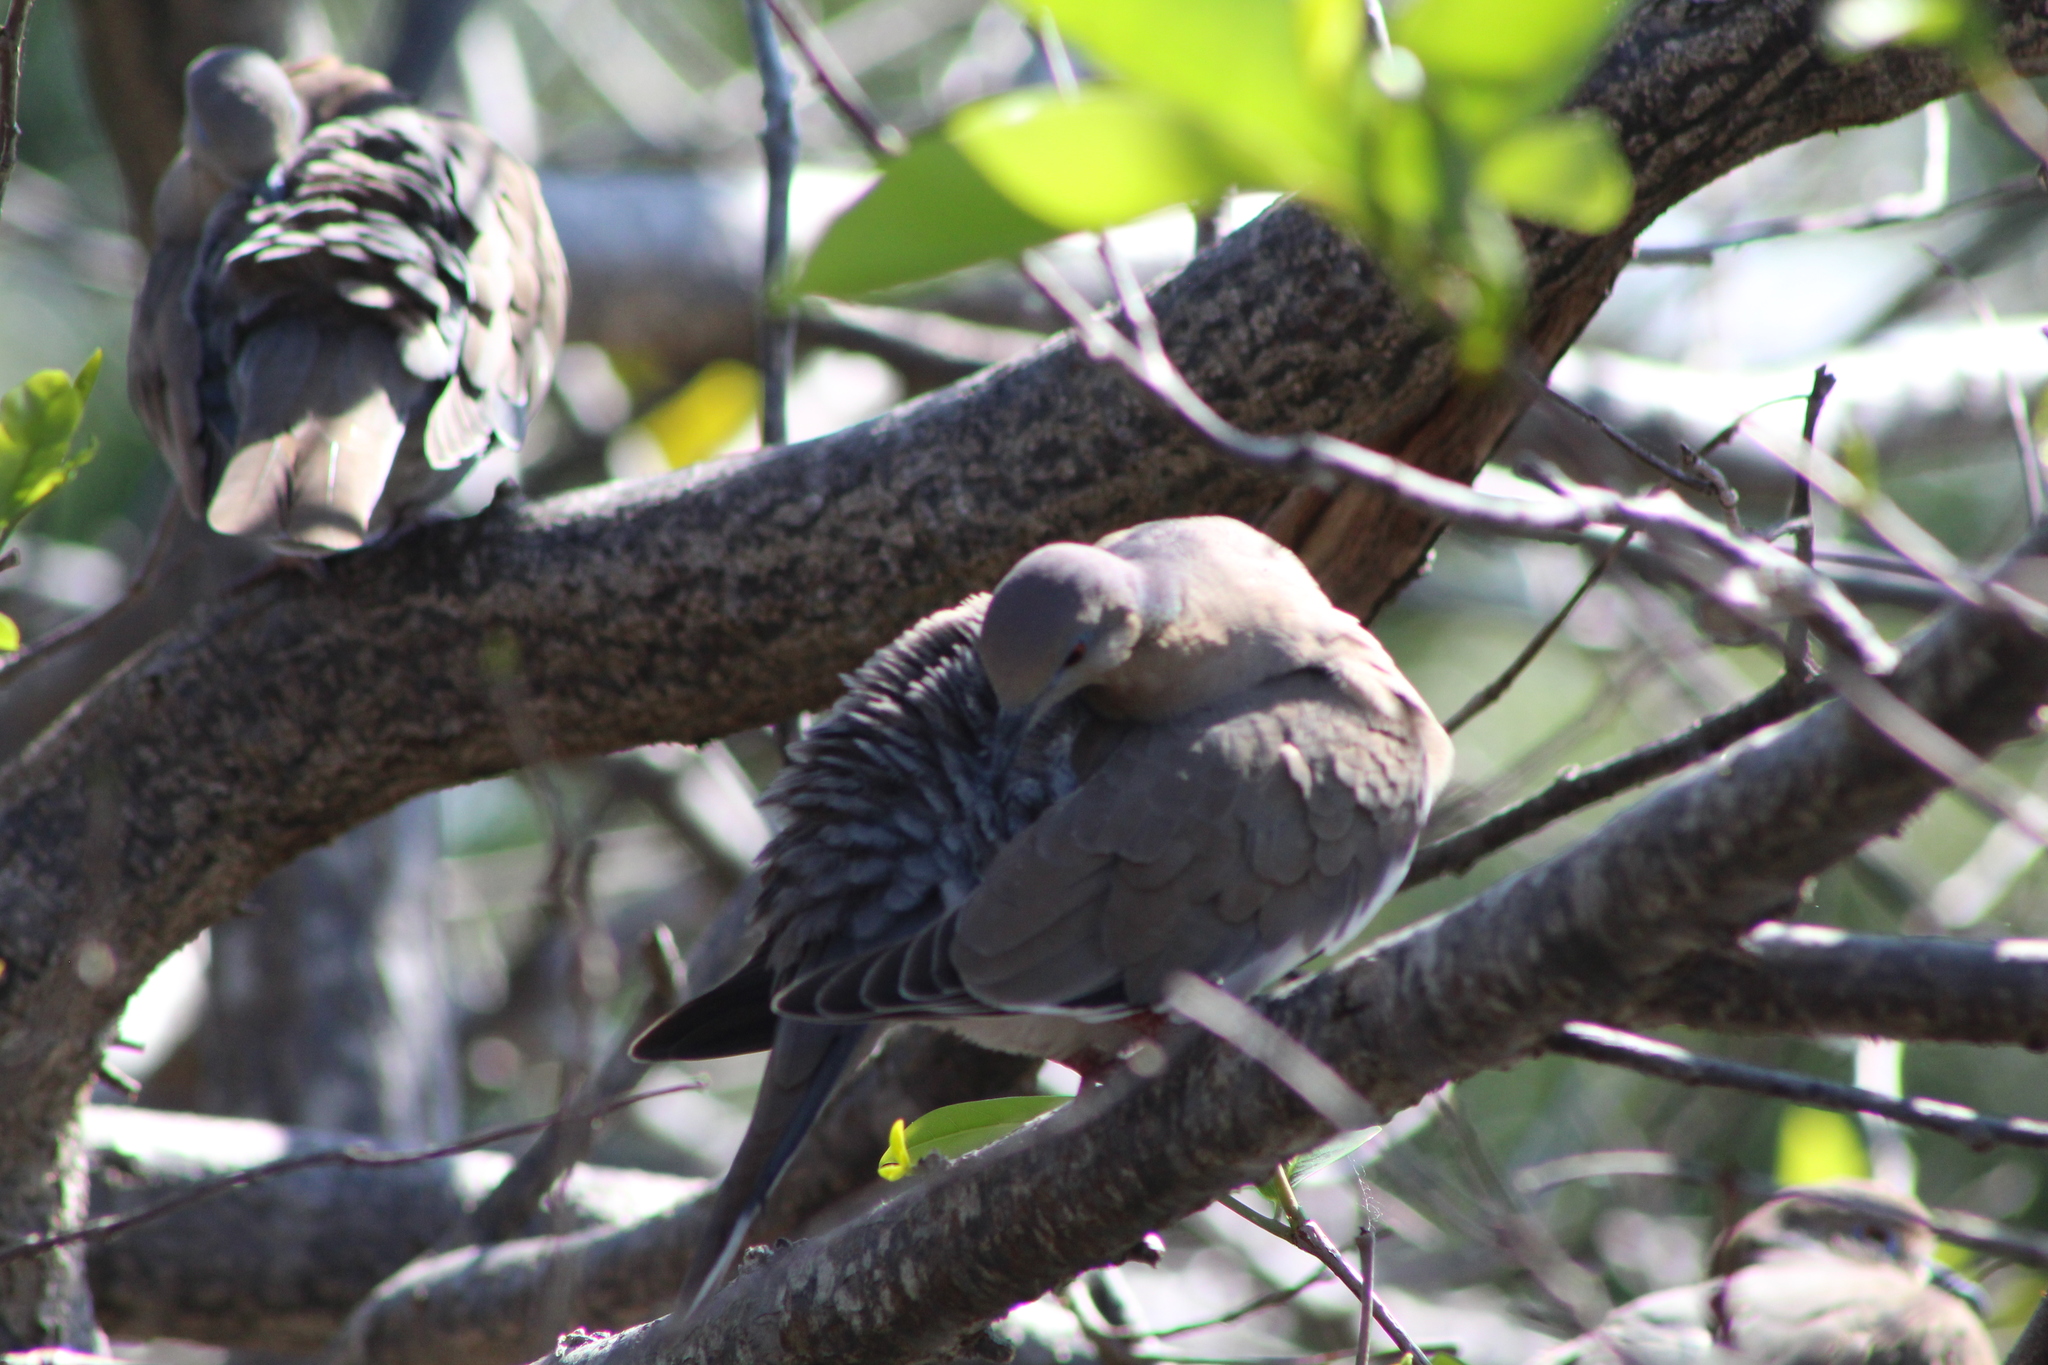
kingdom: Animalia
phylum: Chordata
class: Aves
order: Columbiformes
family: Columbidae
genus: Zenaida
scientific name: Zenaida asiatica
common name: White-winged dove
